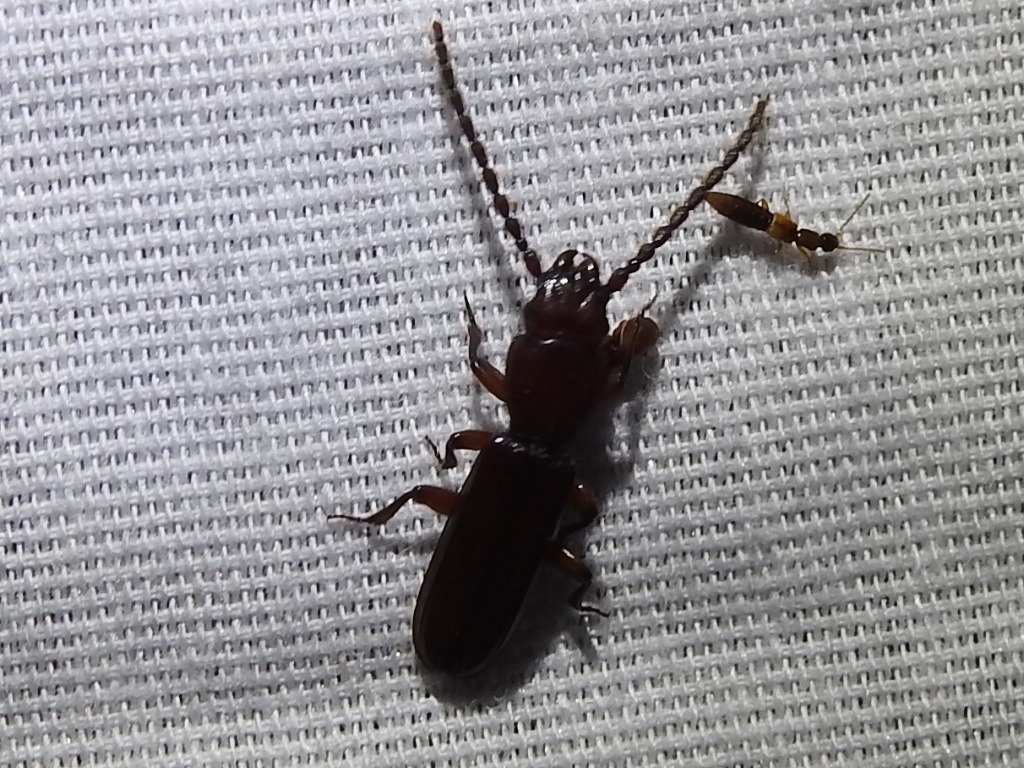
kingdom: Animalia
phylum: Arthropoda
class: Insecta
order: Coleoptera
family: Passandridae
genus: Catogenus
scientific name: Catogenus rufus
